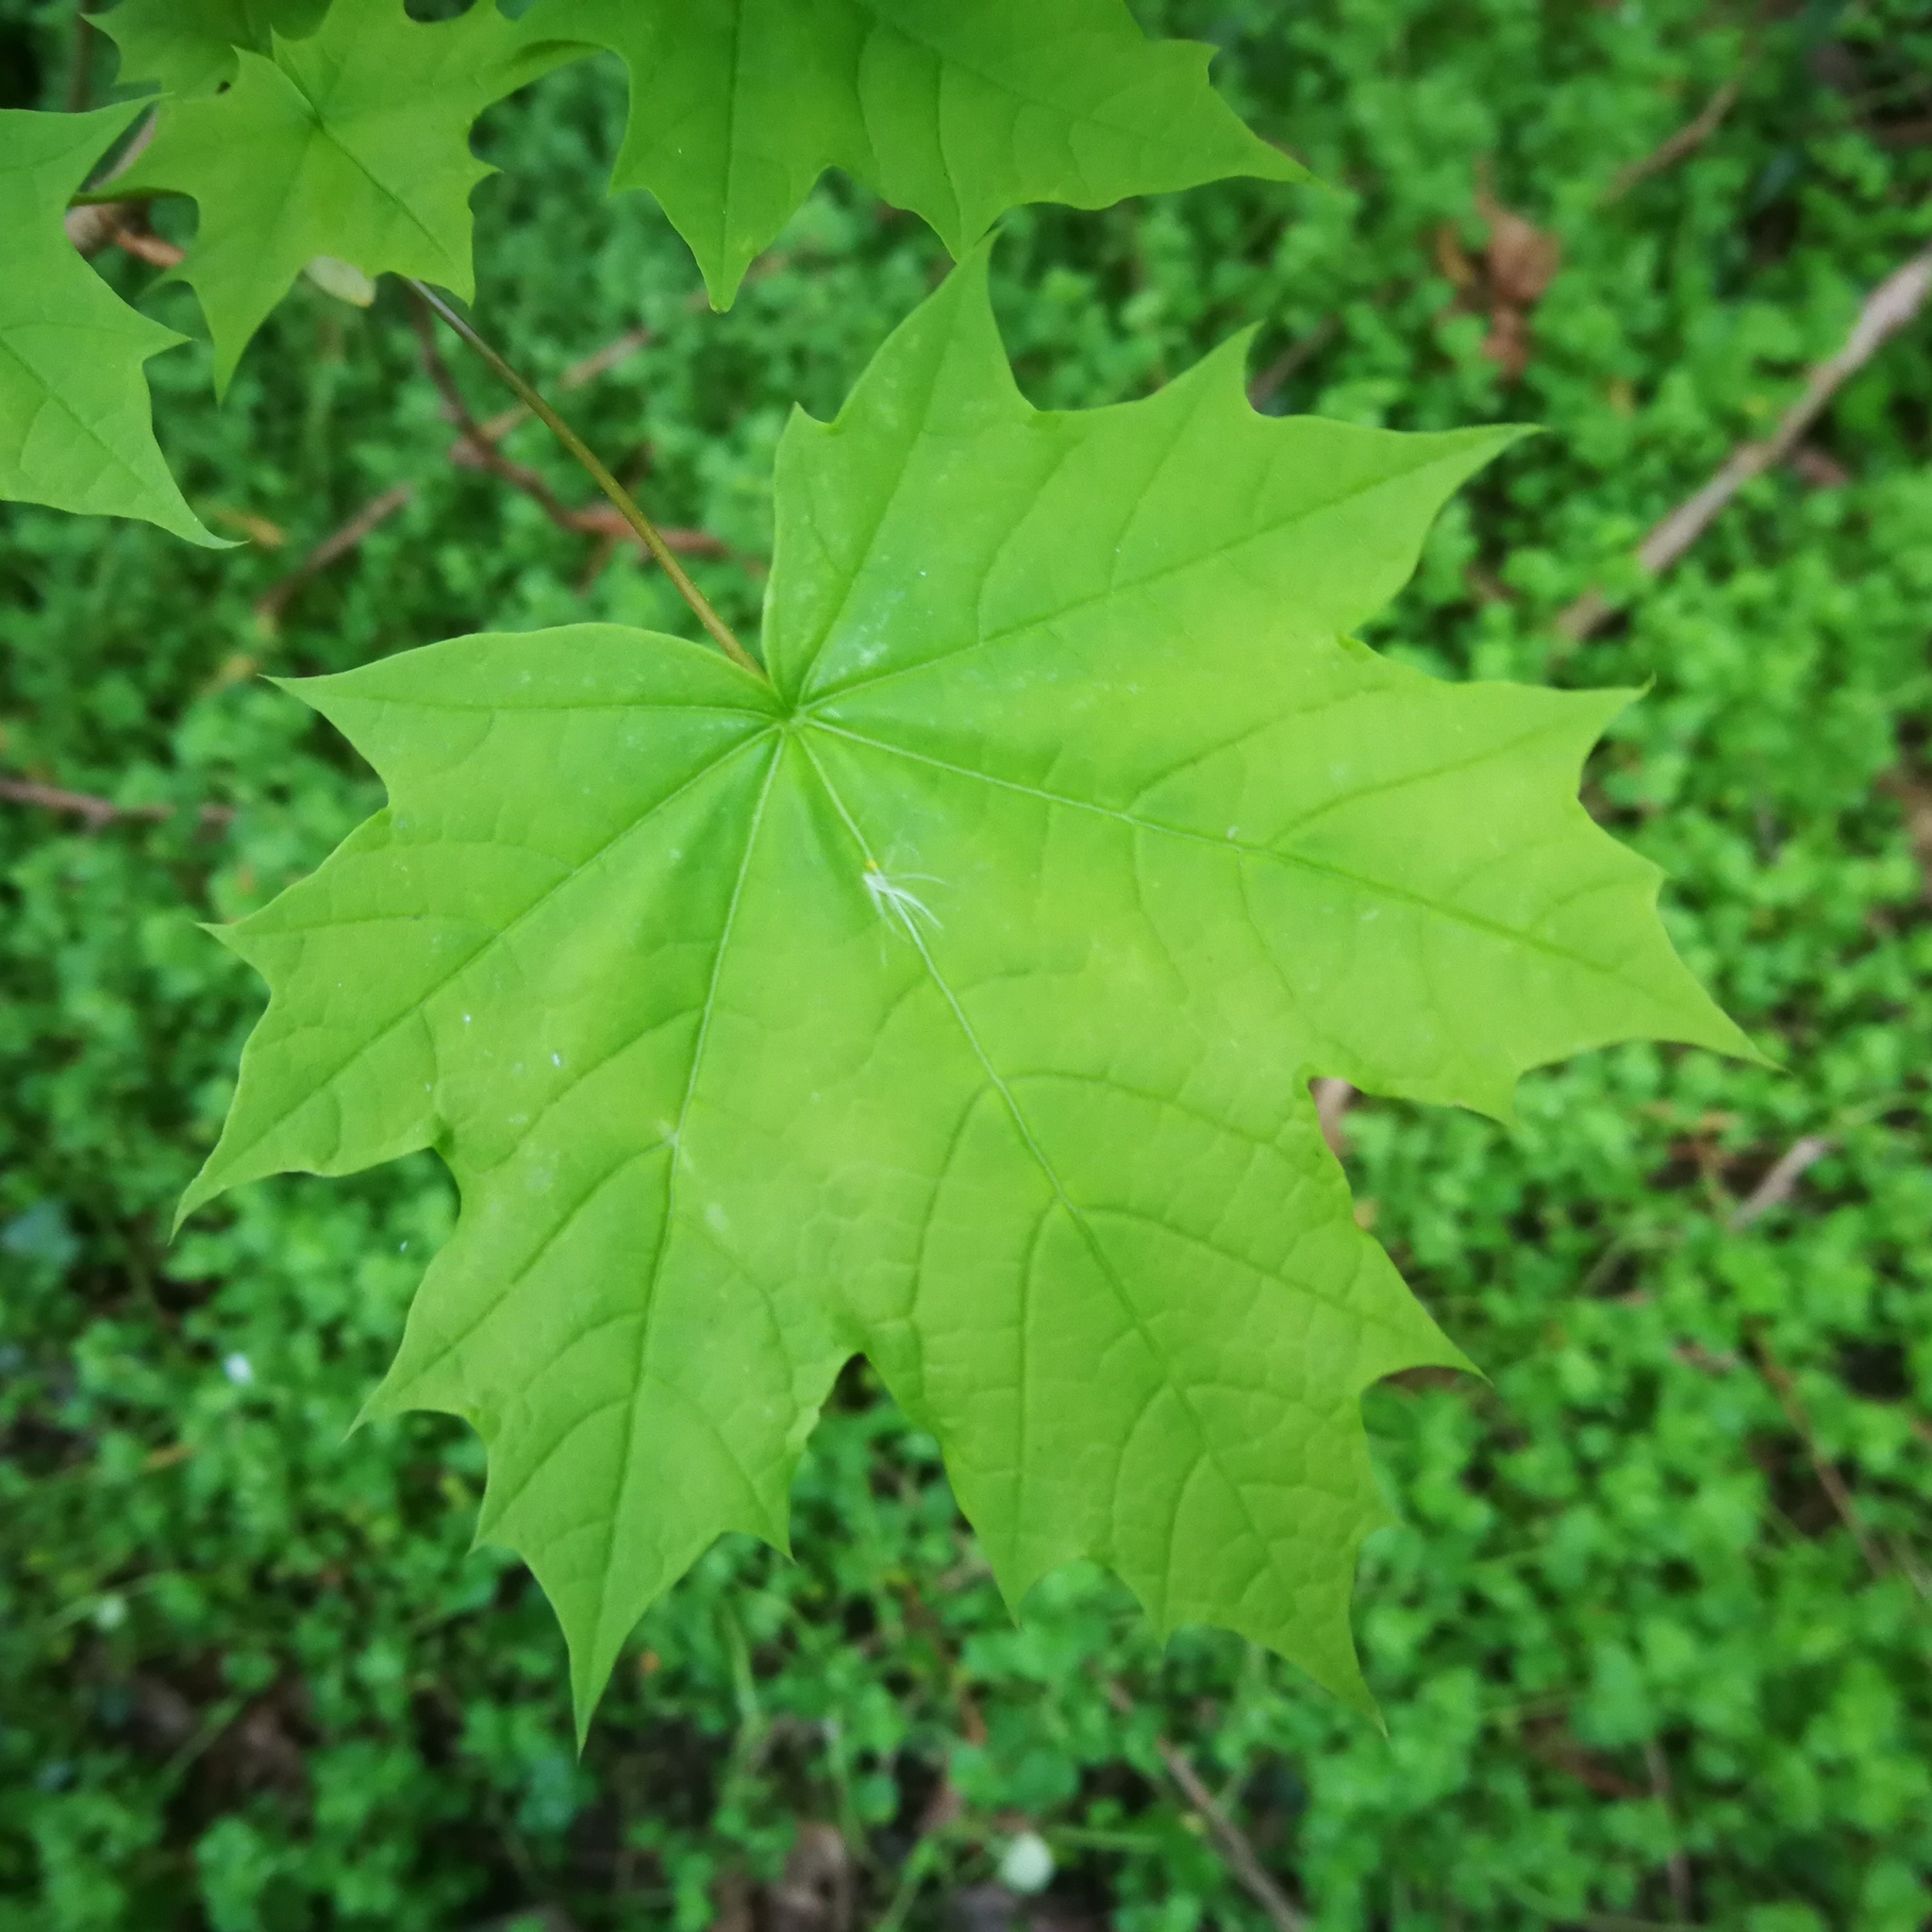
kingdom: Plantae
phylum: Tracheophyta
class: Magnoliopsida
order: Sapindales
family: Sapindaceae
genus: Acer
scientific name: Acer platanoides
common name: Norway maple
